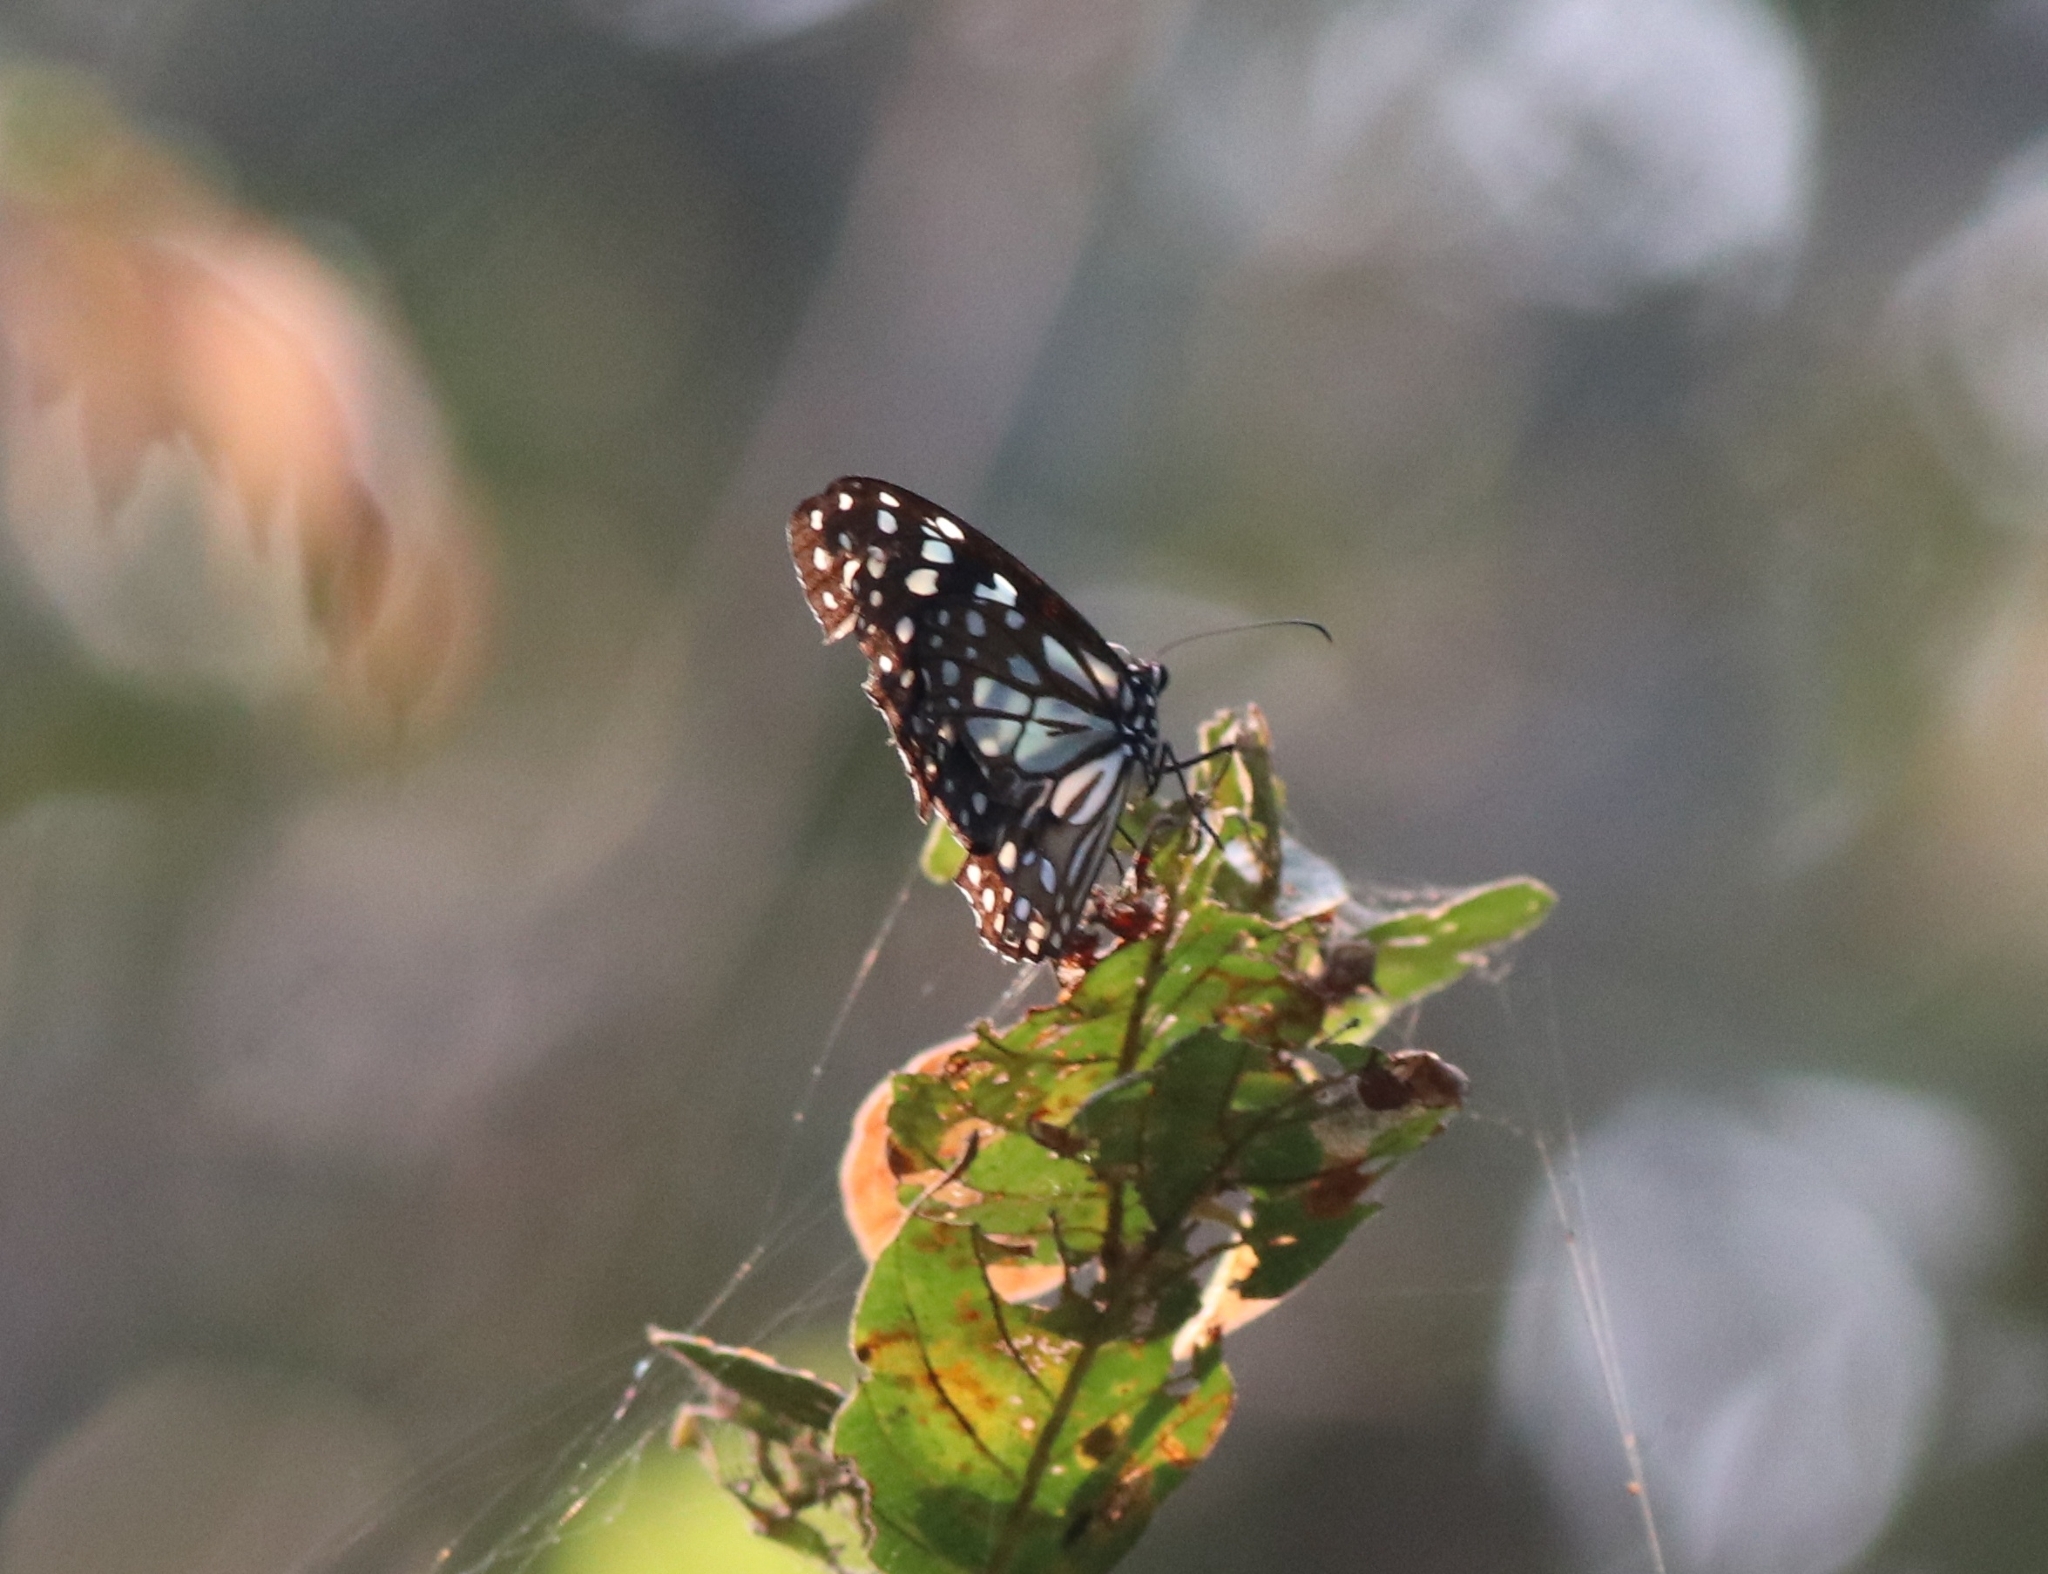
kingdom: Animalia
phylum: Arthropoda
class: Insecta
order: Lepidoptera
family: Nymphalidae
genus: Tirumala
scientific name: Tirumala limniace
